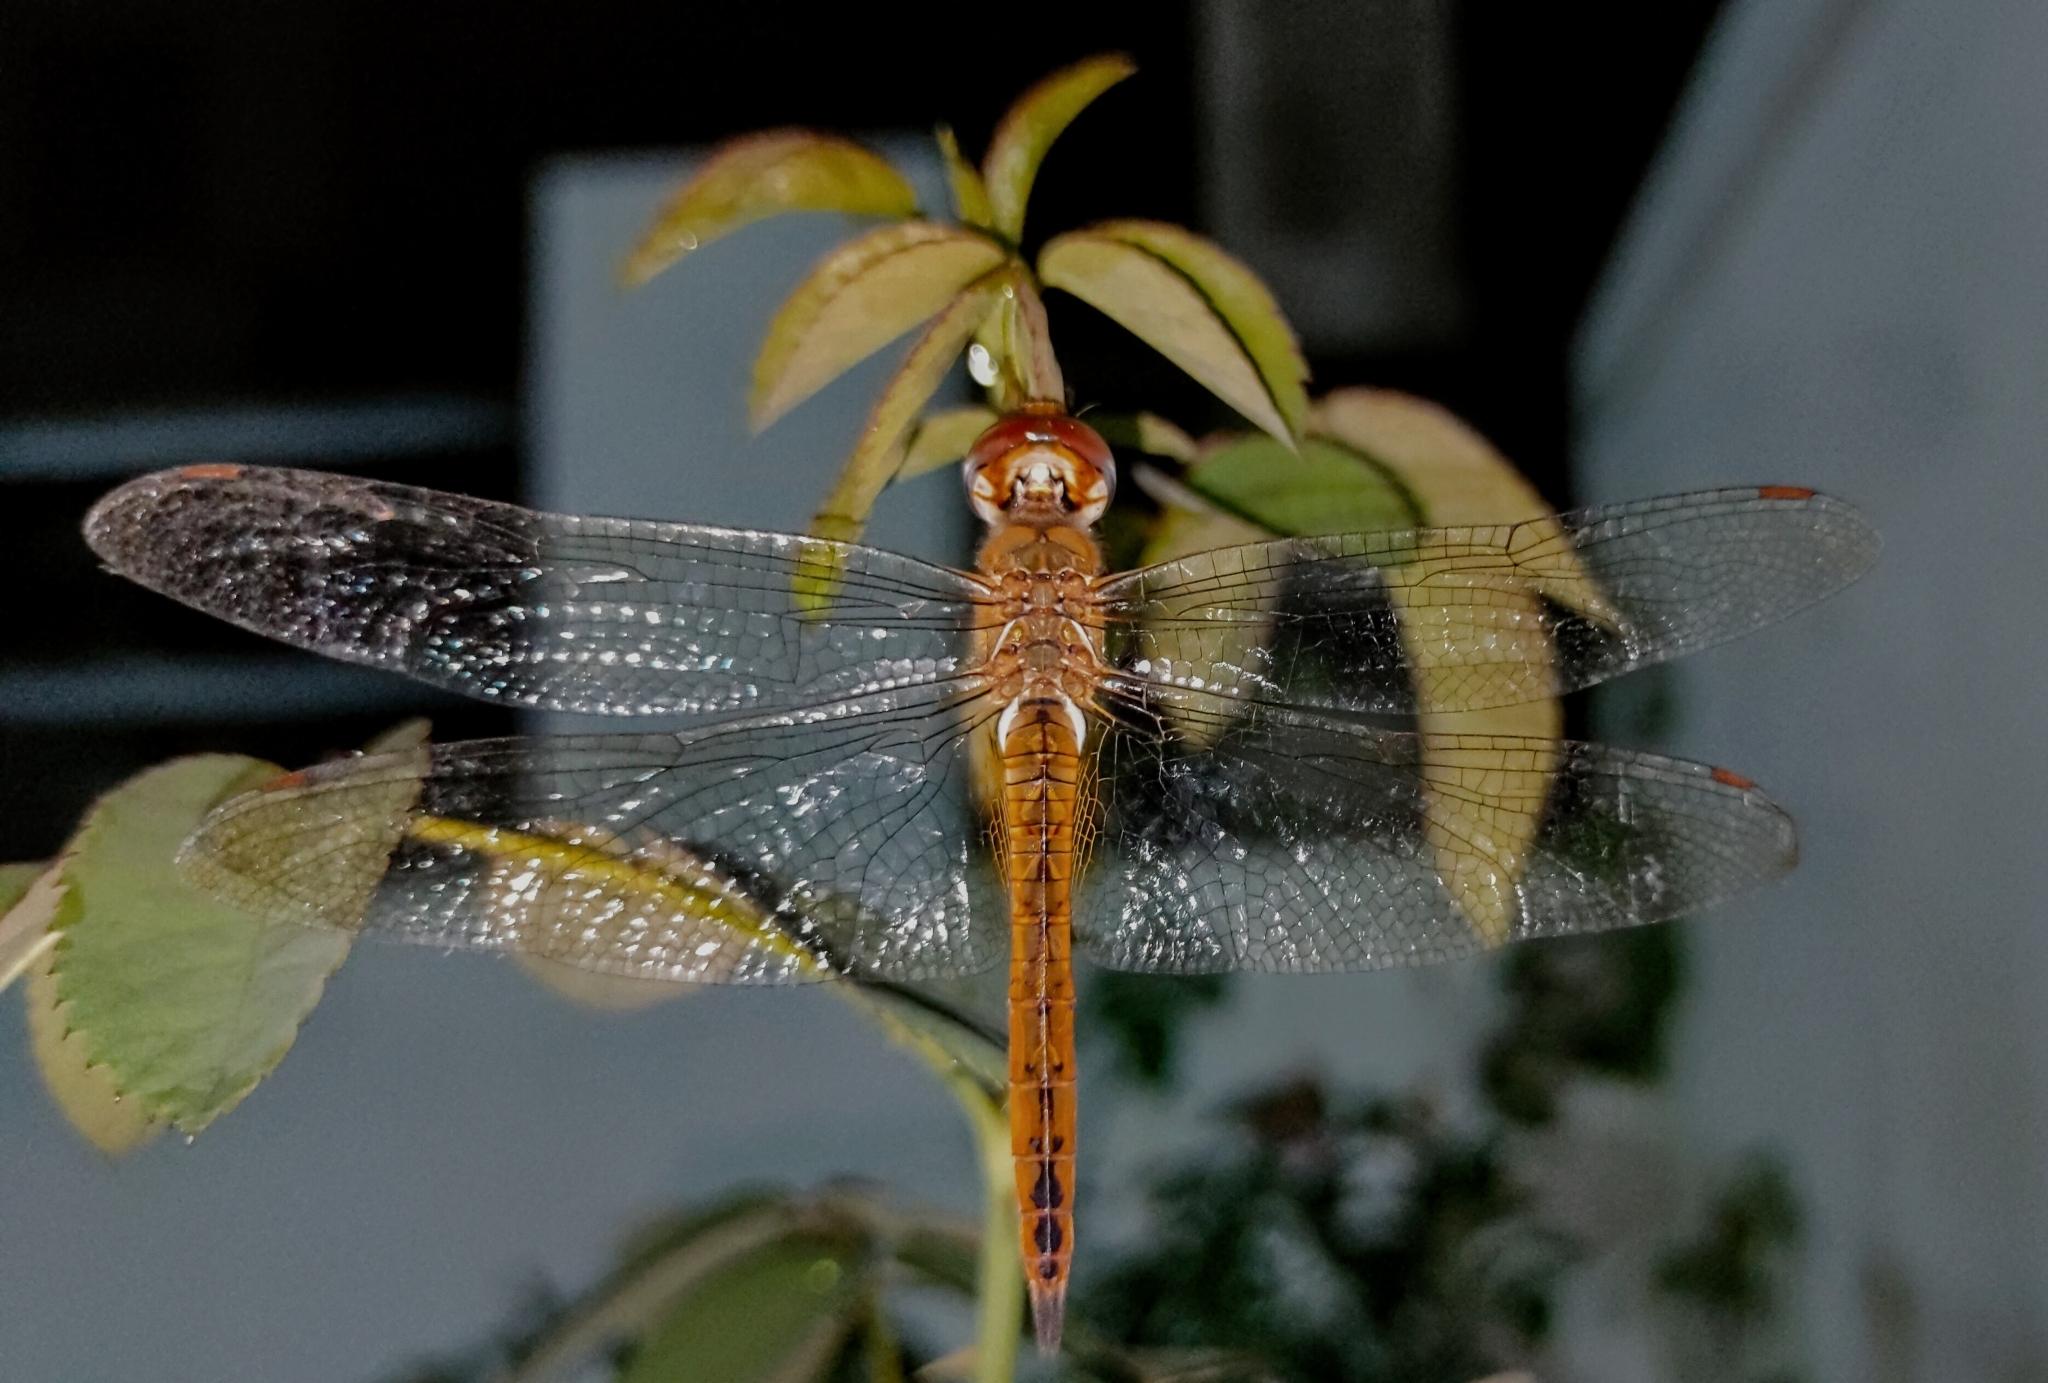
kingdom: Animalia
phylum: Arthropoda
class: Insecta
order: Odonata
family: Libellulidae
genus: Pantala
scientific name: Pantala flavescens
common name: Wandering glider
